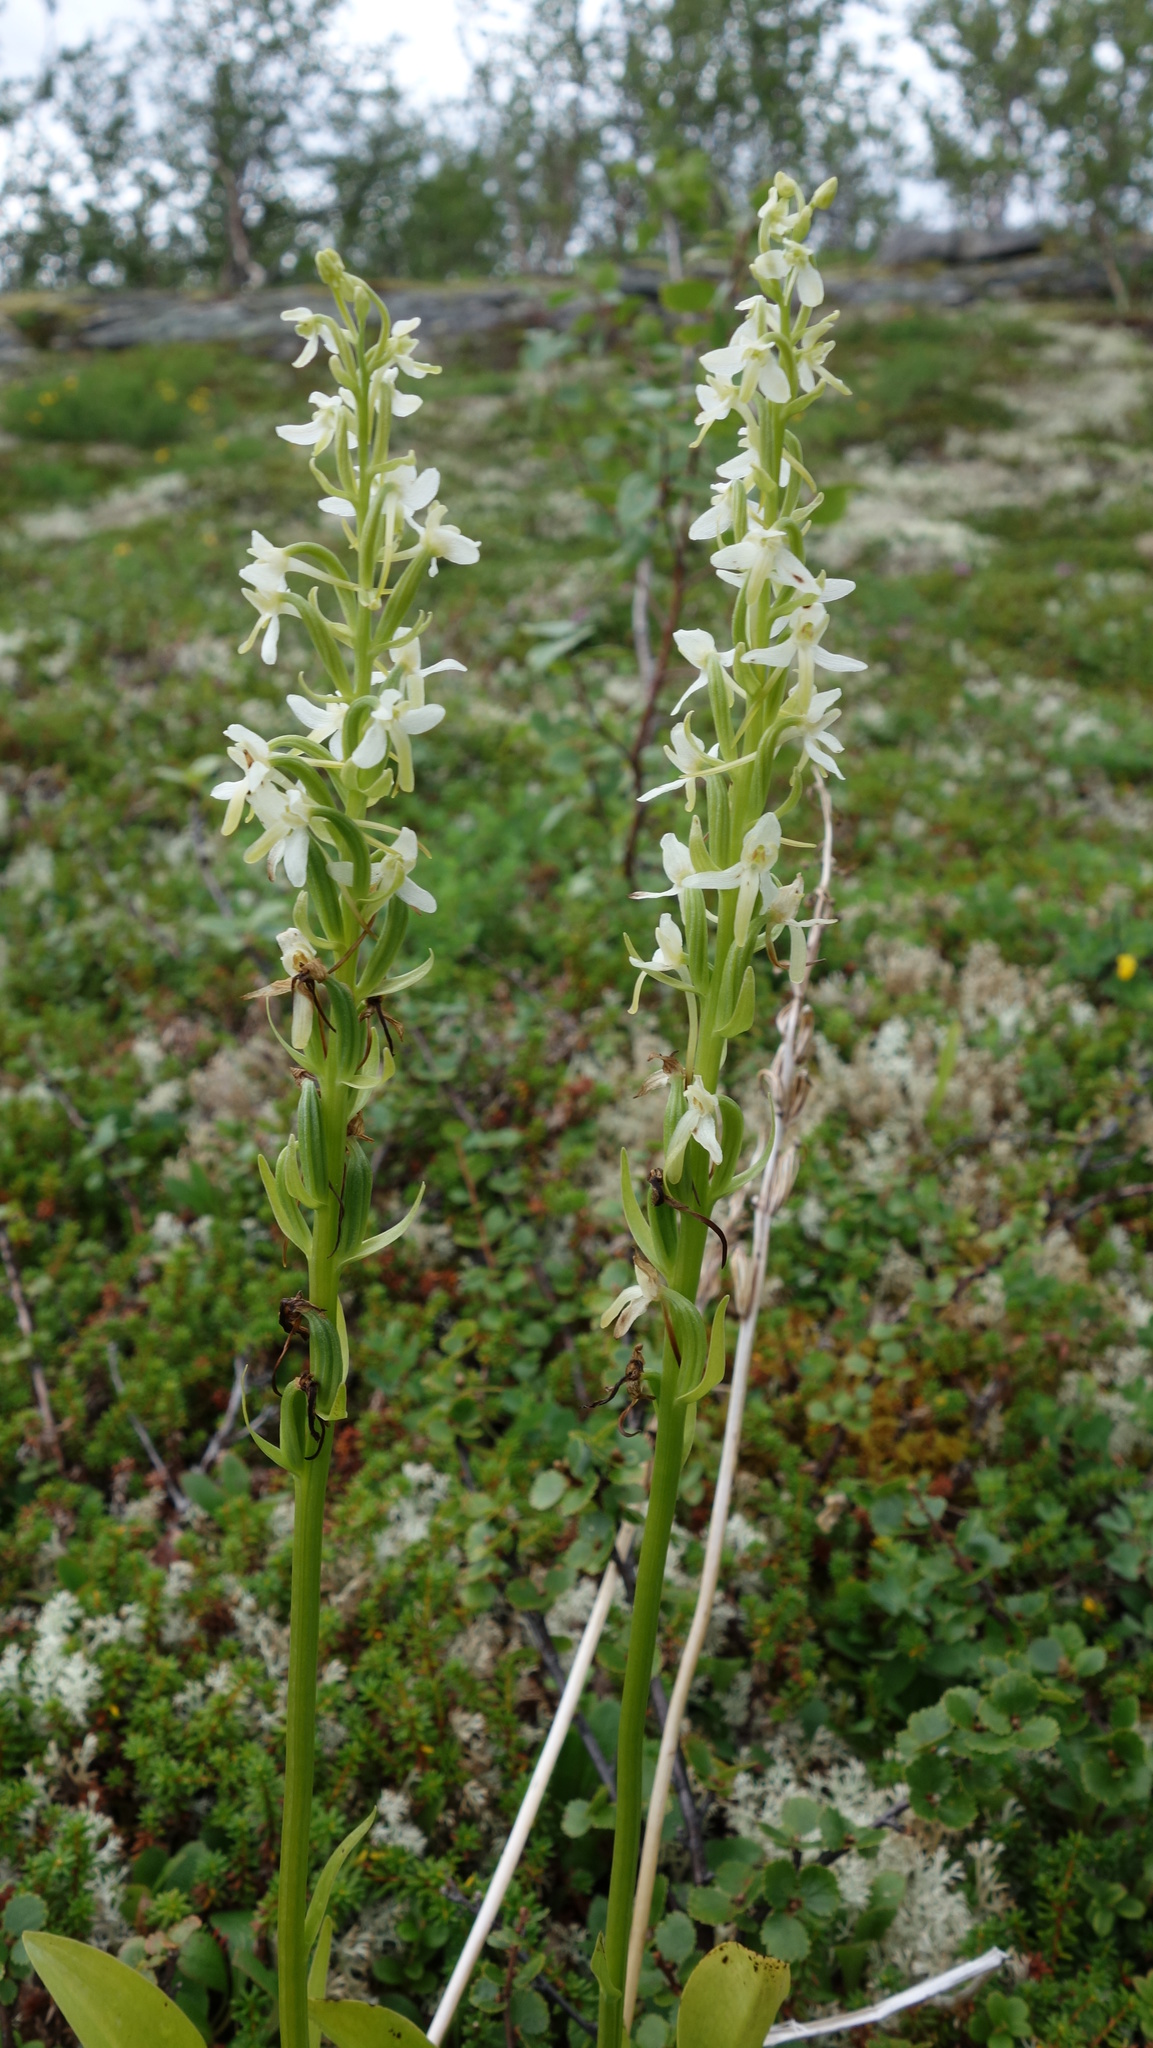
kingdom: Plantae
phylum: Tracheophyta
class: Liliopsida
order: Asparagales
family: Orchidaceae
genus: Platanthera
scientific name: Platanthera bifolia
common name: Lesser butterfly-orchid
